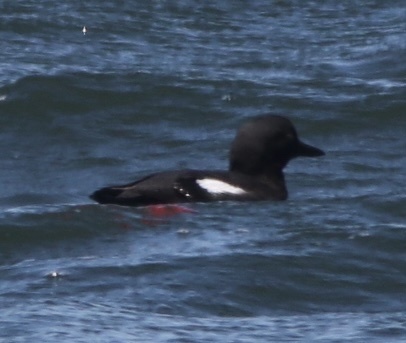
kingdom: Animalia
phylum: Chordata
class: Aves
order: Charadriiformes
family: Alcidae
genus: Cepphus
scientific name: Cepphus columba
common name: Pigeon guillemot
